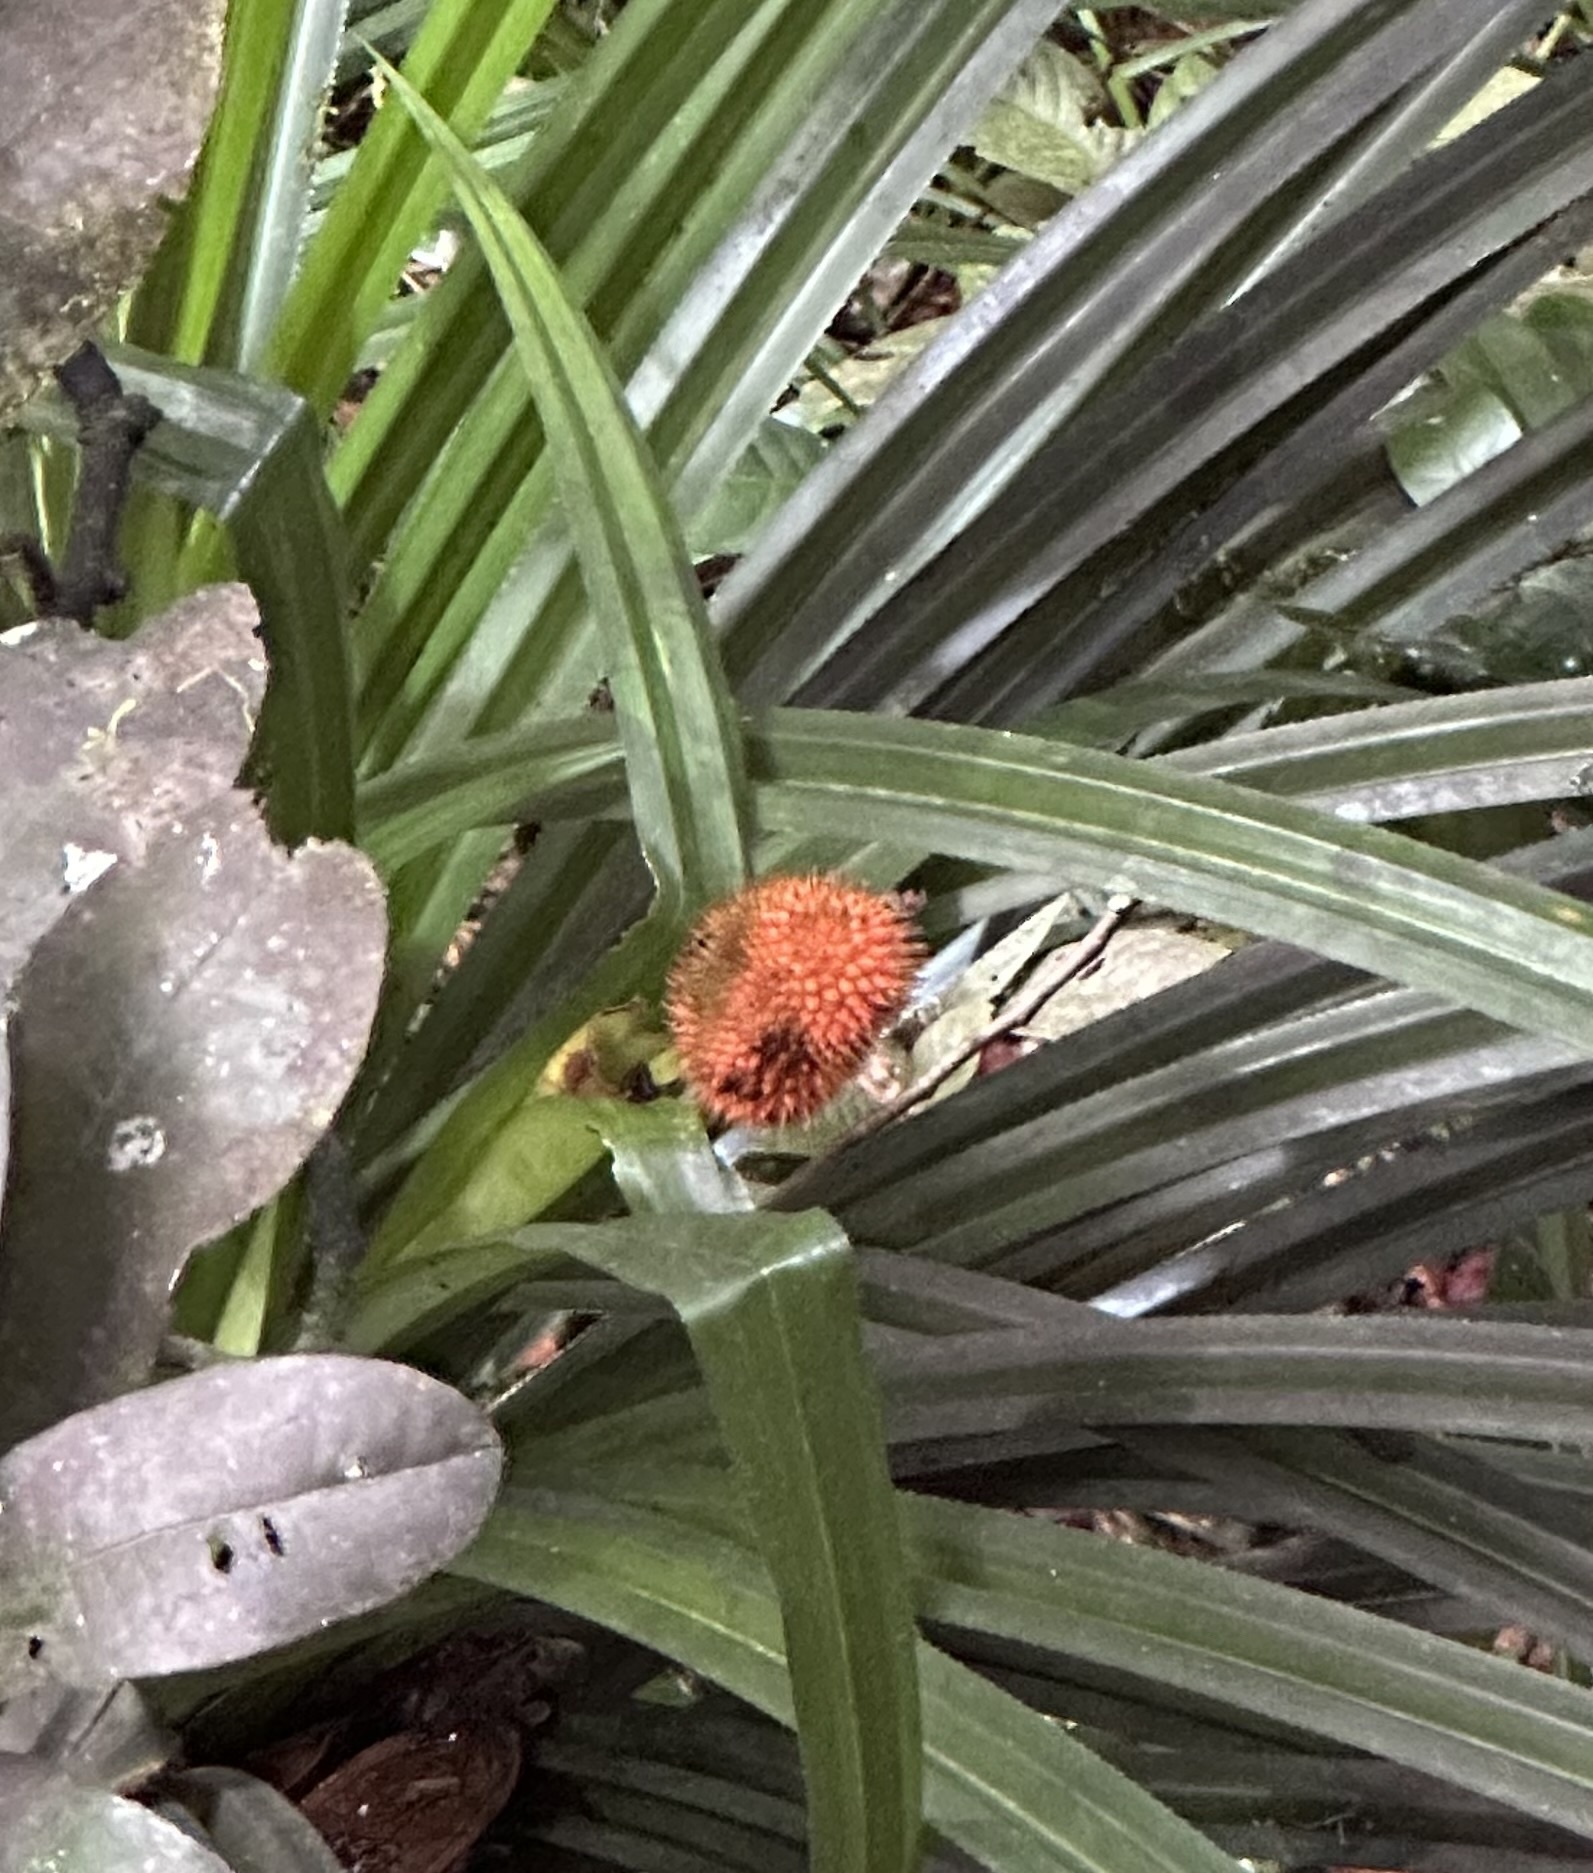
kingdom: Plantae
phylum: Tracheophyta
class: Liliopsida
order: Pandanales
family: Pandanaceae
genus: Benstonea
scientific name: Benstonea monticola
